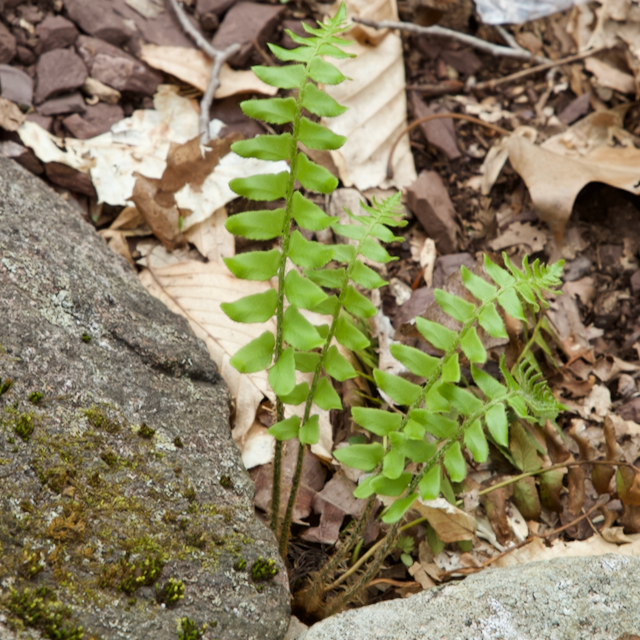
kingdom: Plantae
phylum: Tracheophyta
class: Polypodiopsida
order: Polypodiales
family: Dryopteridaceae
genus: Polystichum
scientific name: Polystichum acrostichoides
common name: Christmas fern
